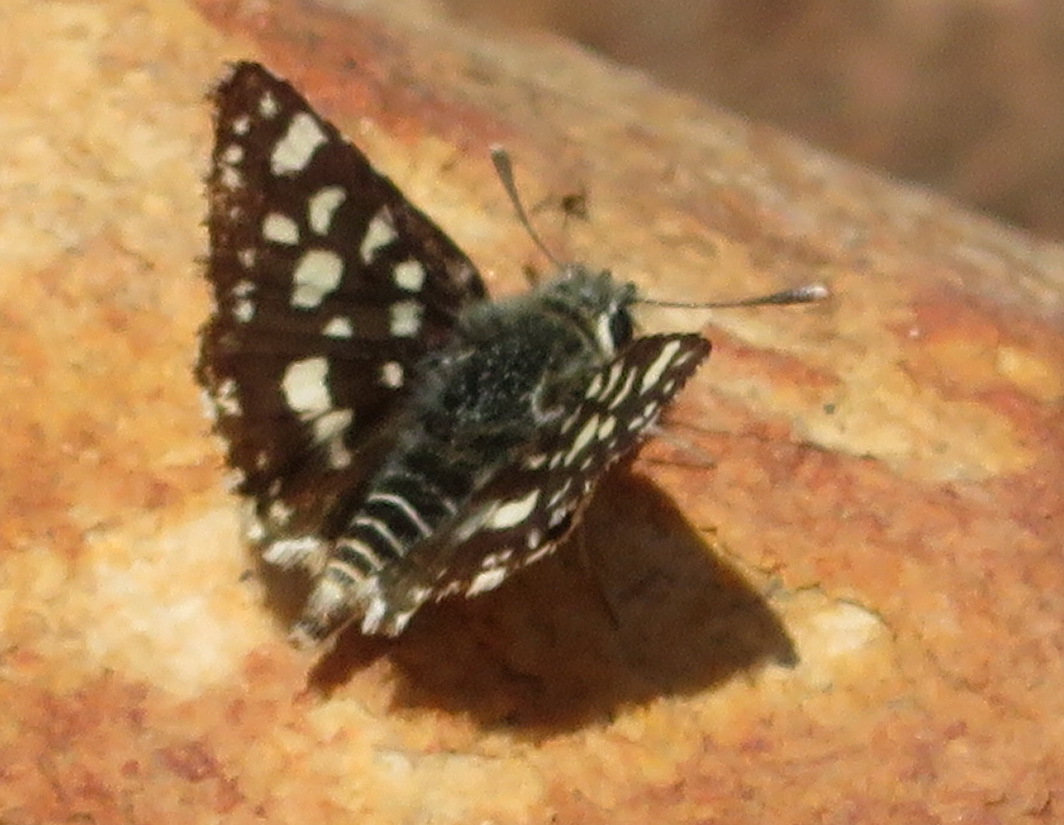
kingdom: Animalia
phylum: Arthropoda
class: Insecta
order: Lepidoptera
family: Hesperiidae
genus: Spialia
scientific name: Spialia diomus
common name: Common sandman
